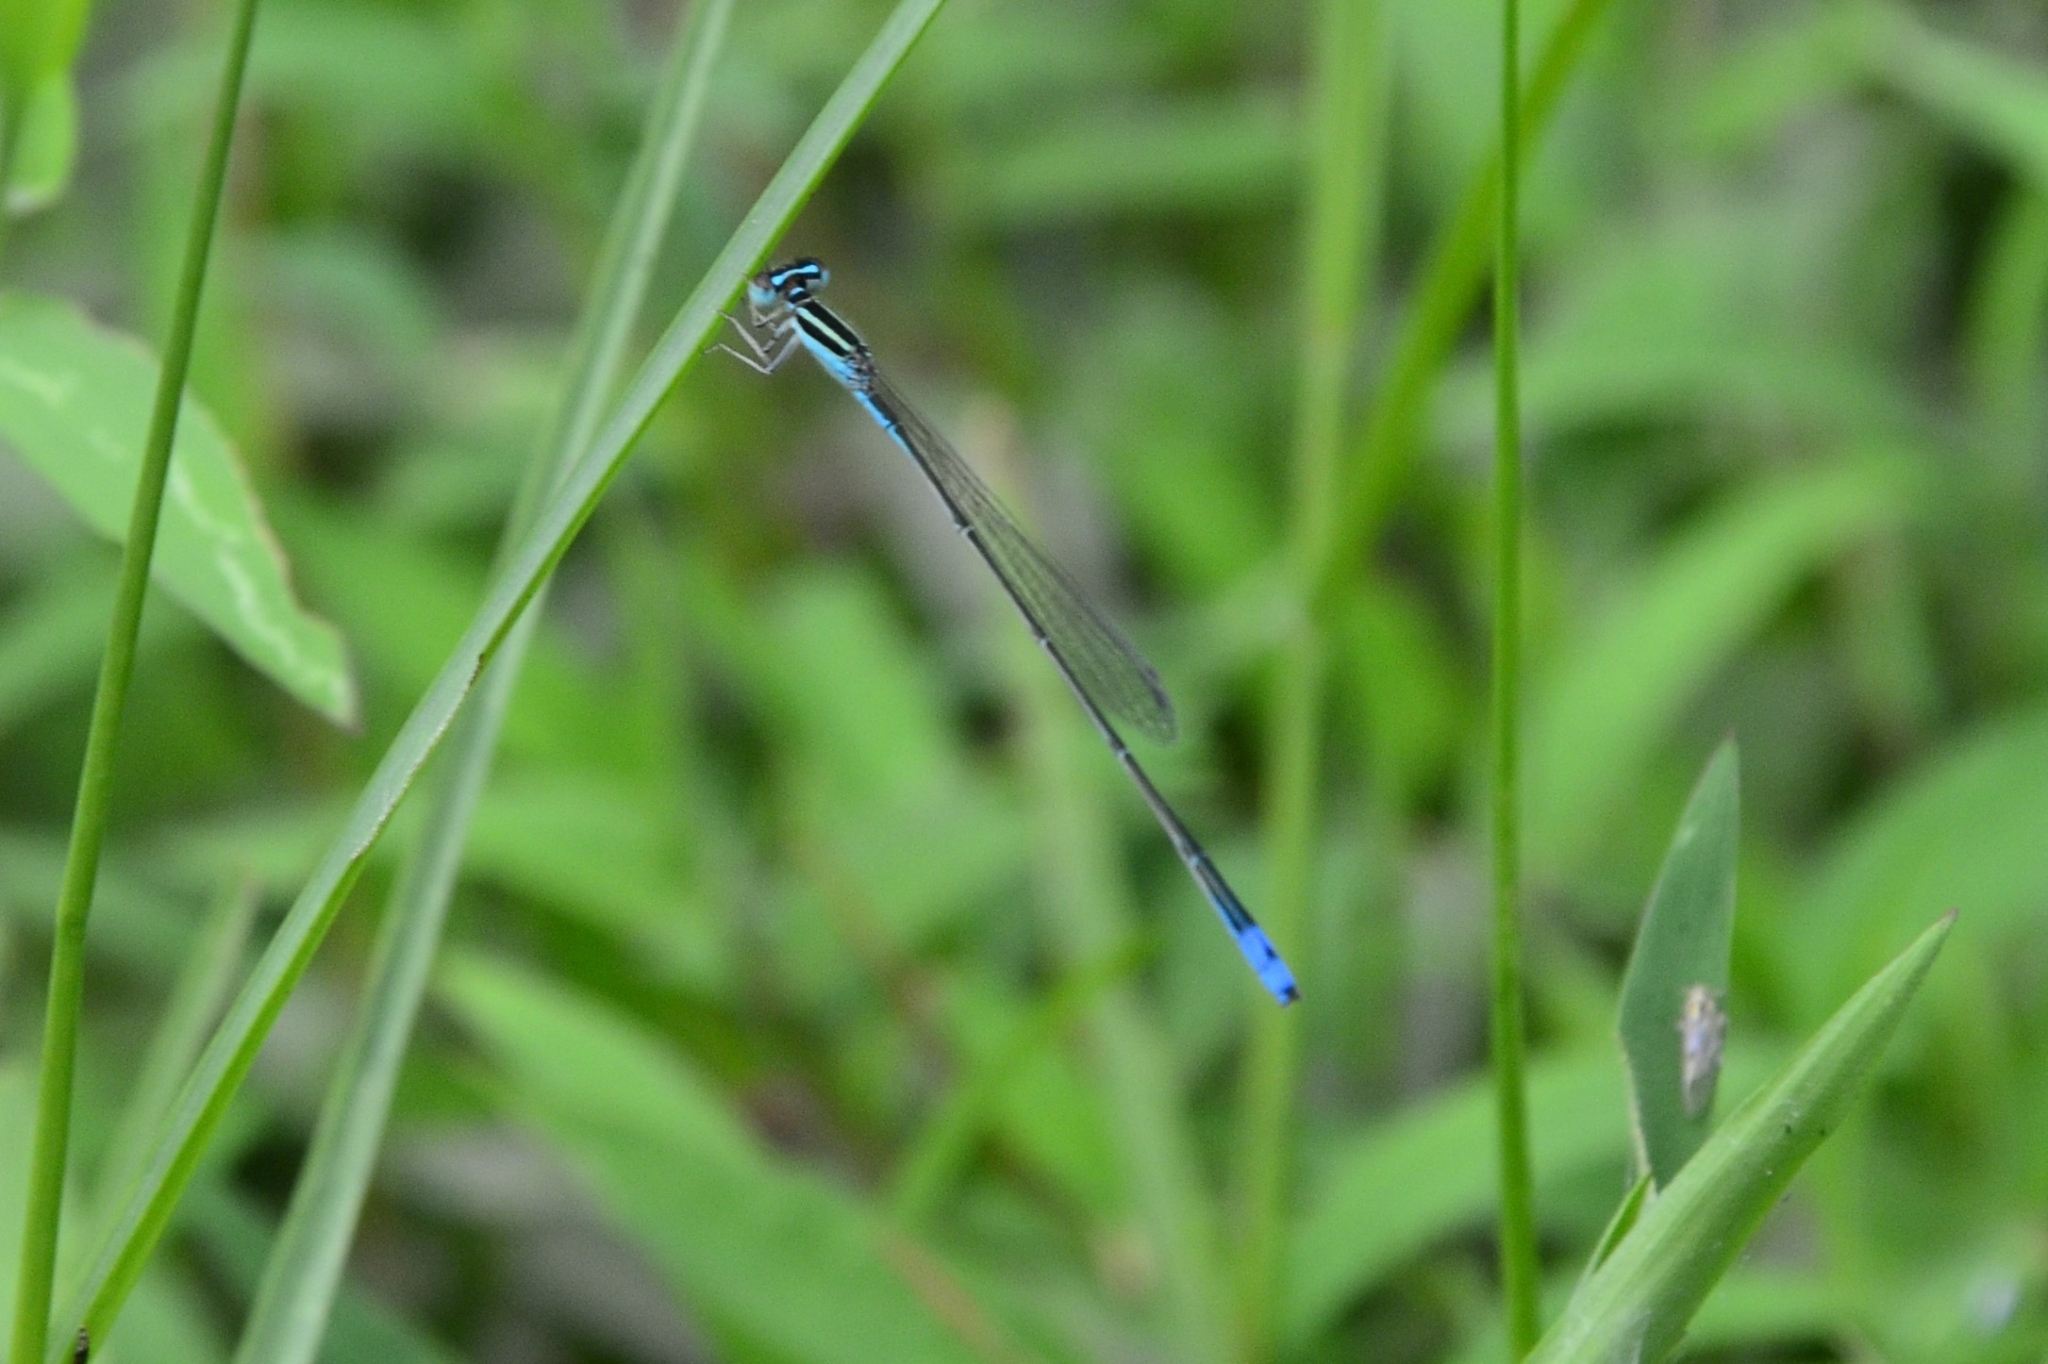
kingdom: Animalia
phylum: Arthropoda
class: Insecta
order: Odonata
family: Coenagrionidae
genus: Aciagrion
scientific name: Aciagrion occidentale
